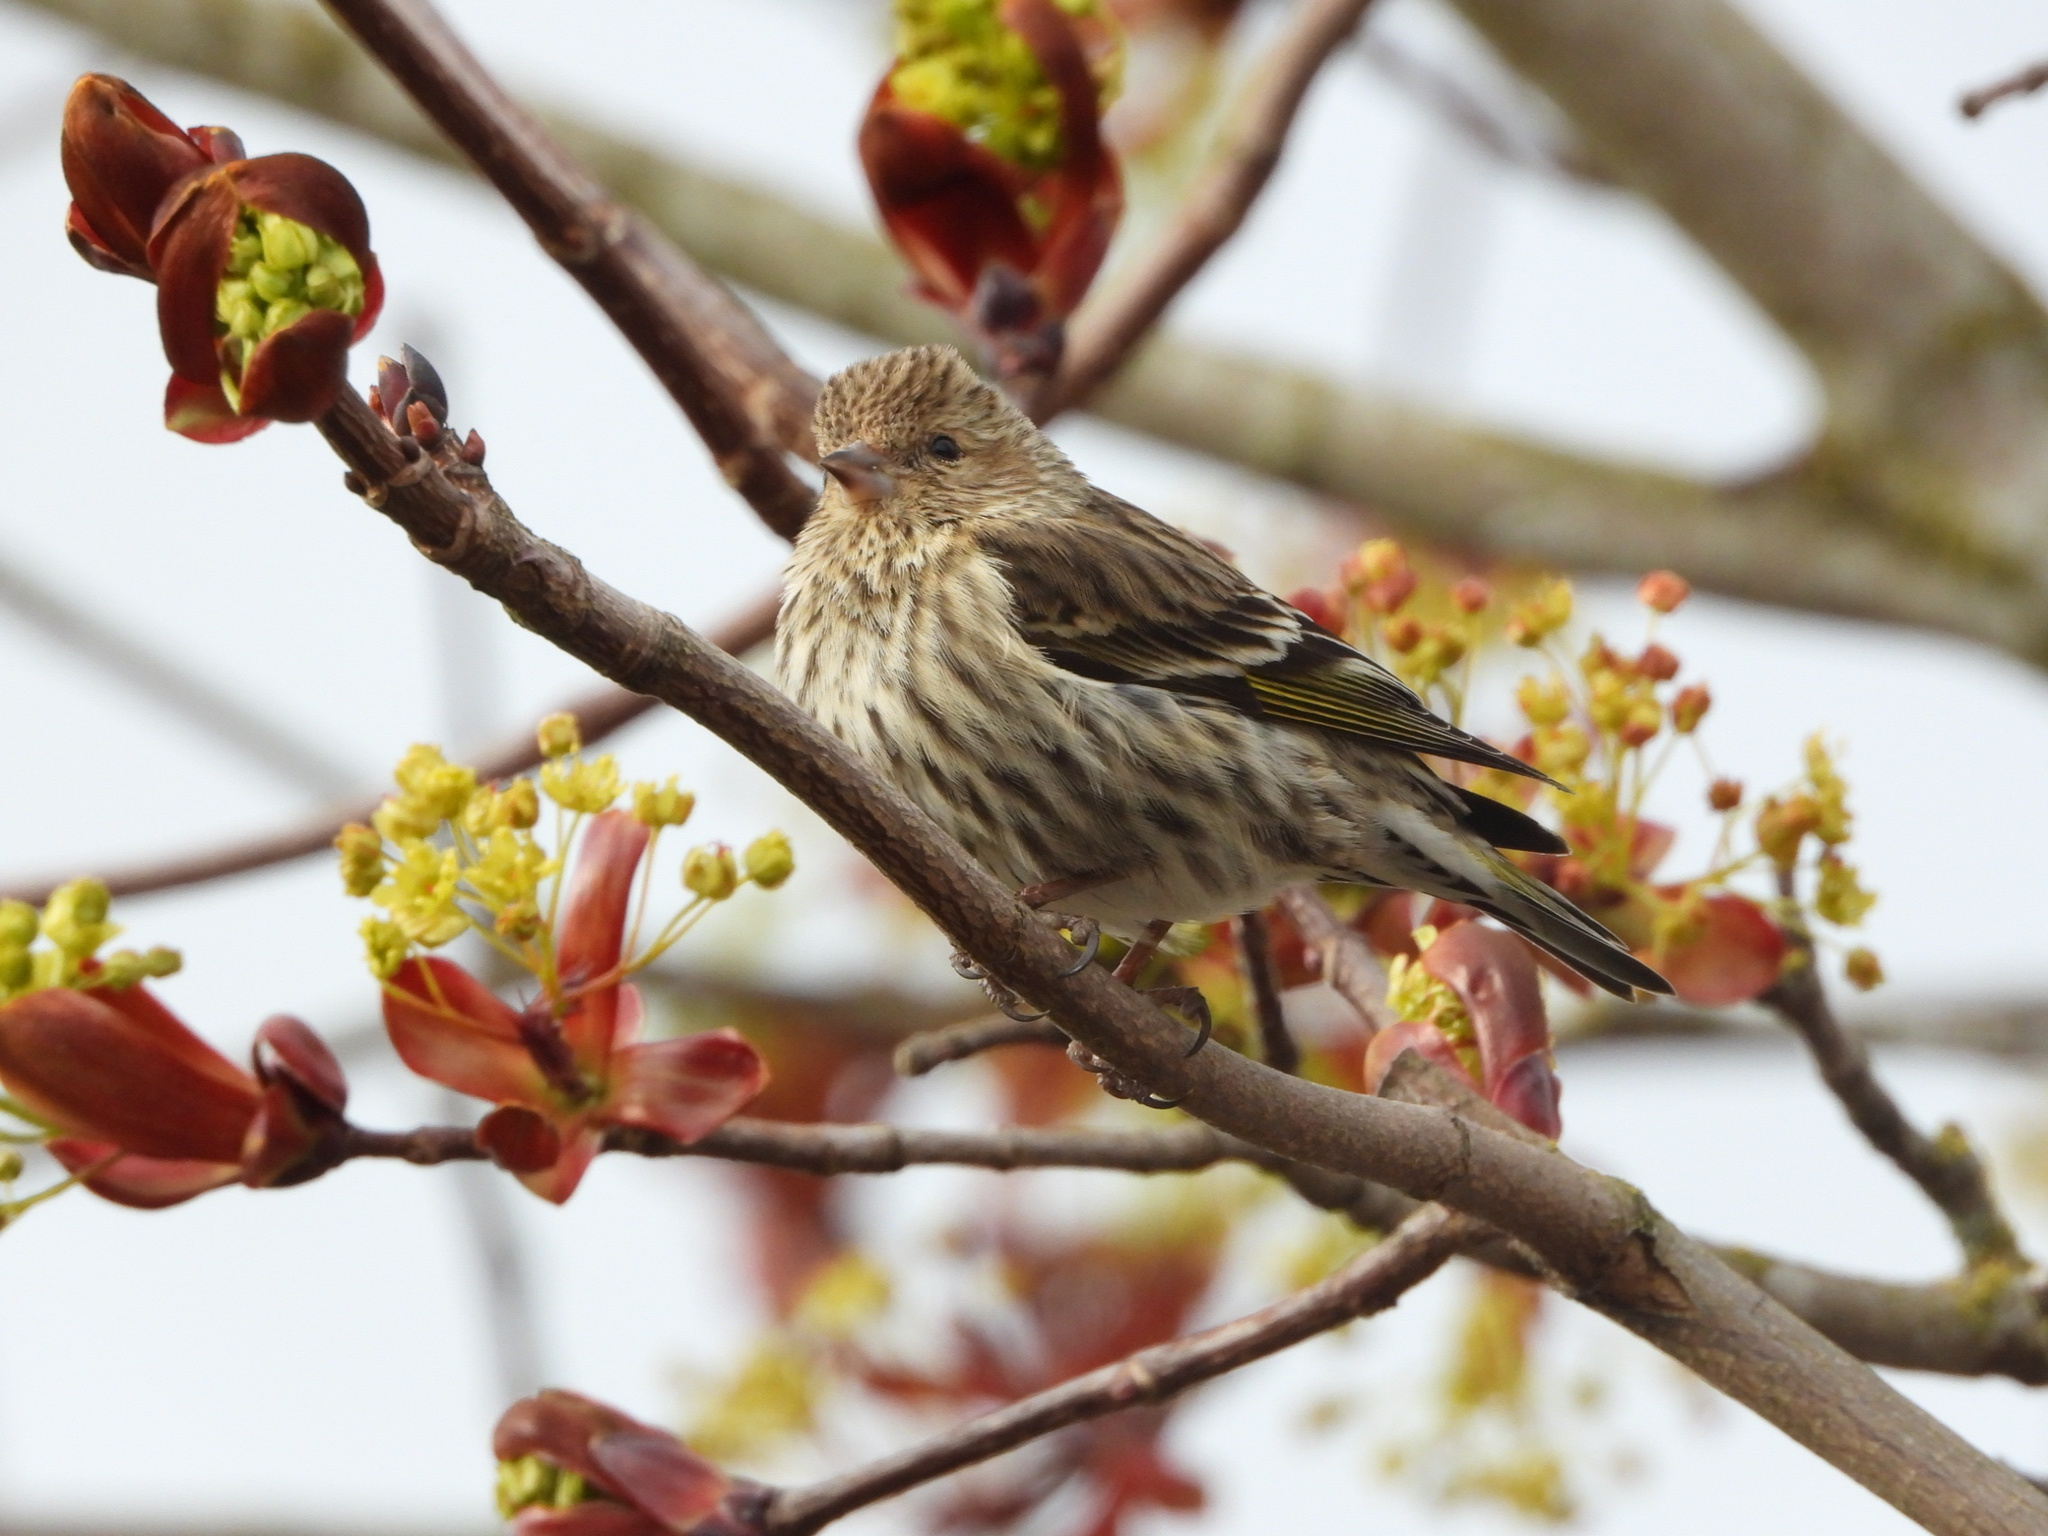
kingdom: Animalia
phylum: Chordata
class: Aves
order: Passeriformes
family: Fringillidae
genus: Spinus
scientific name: Spinus pinus
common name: Pine siskin
